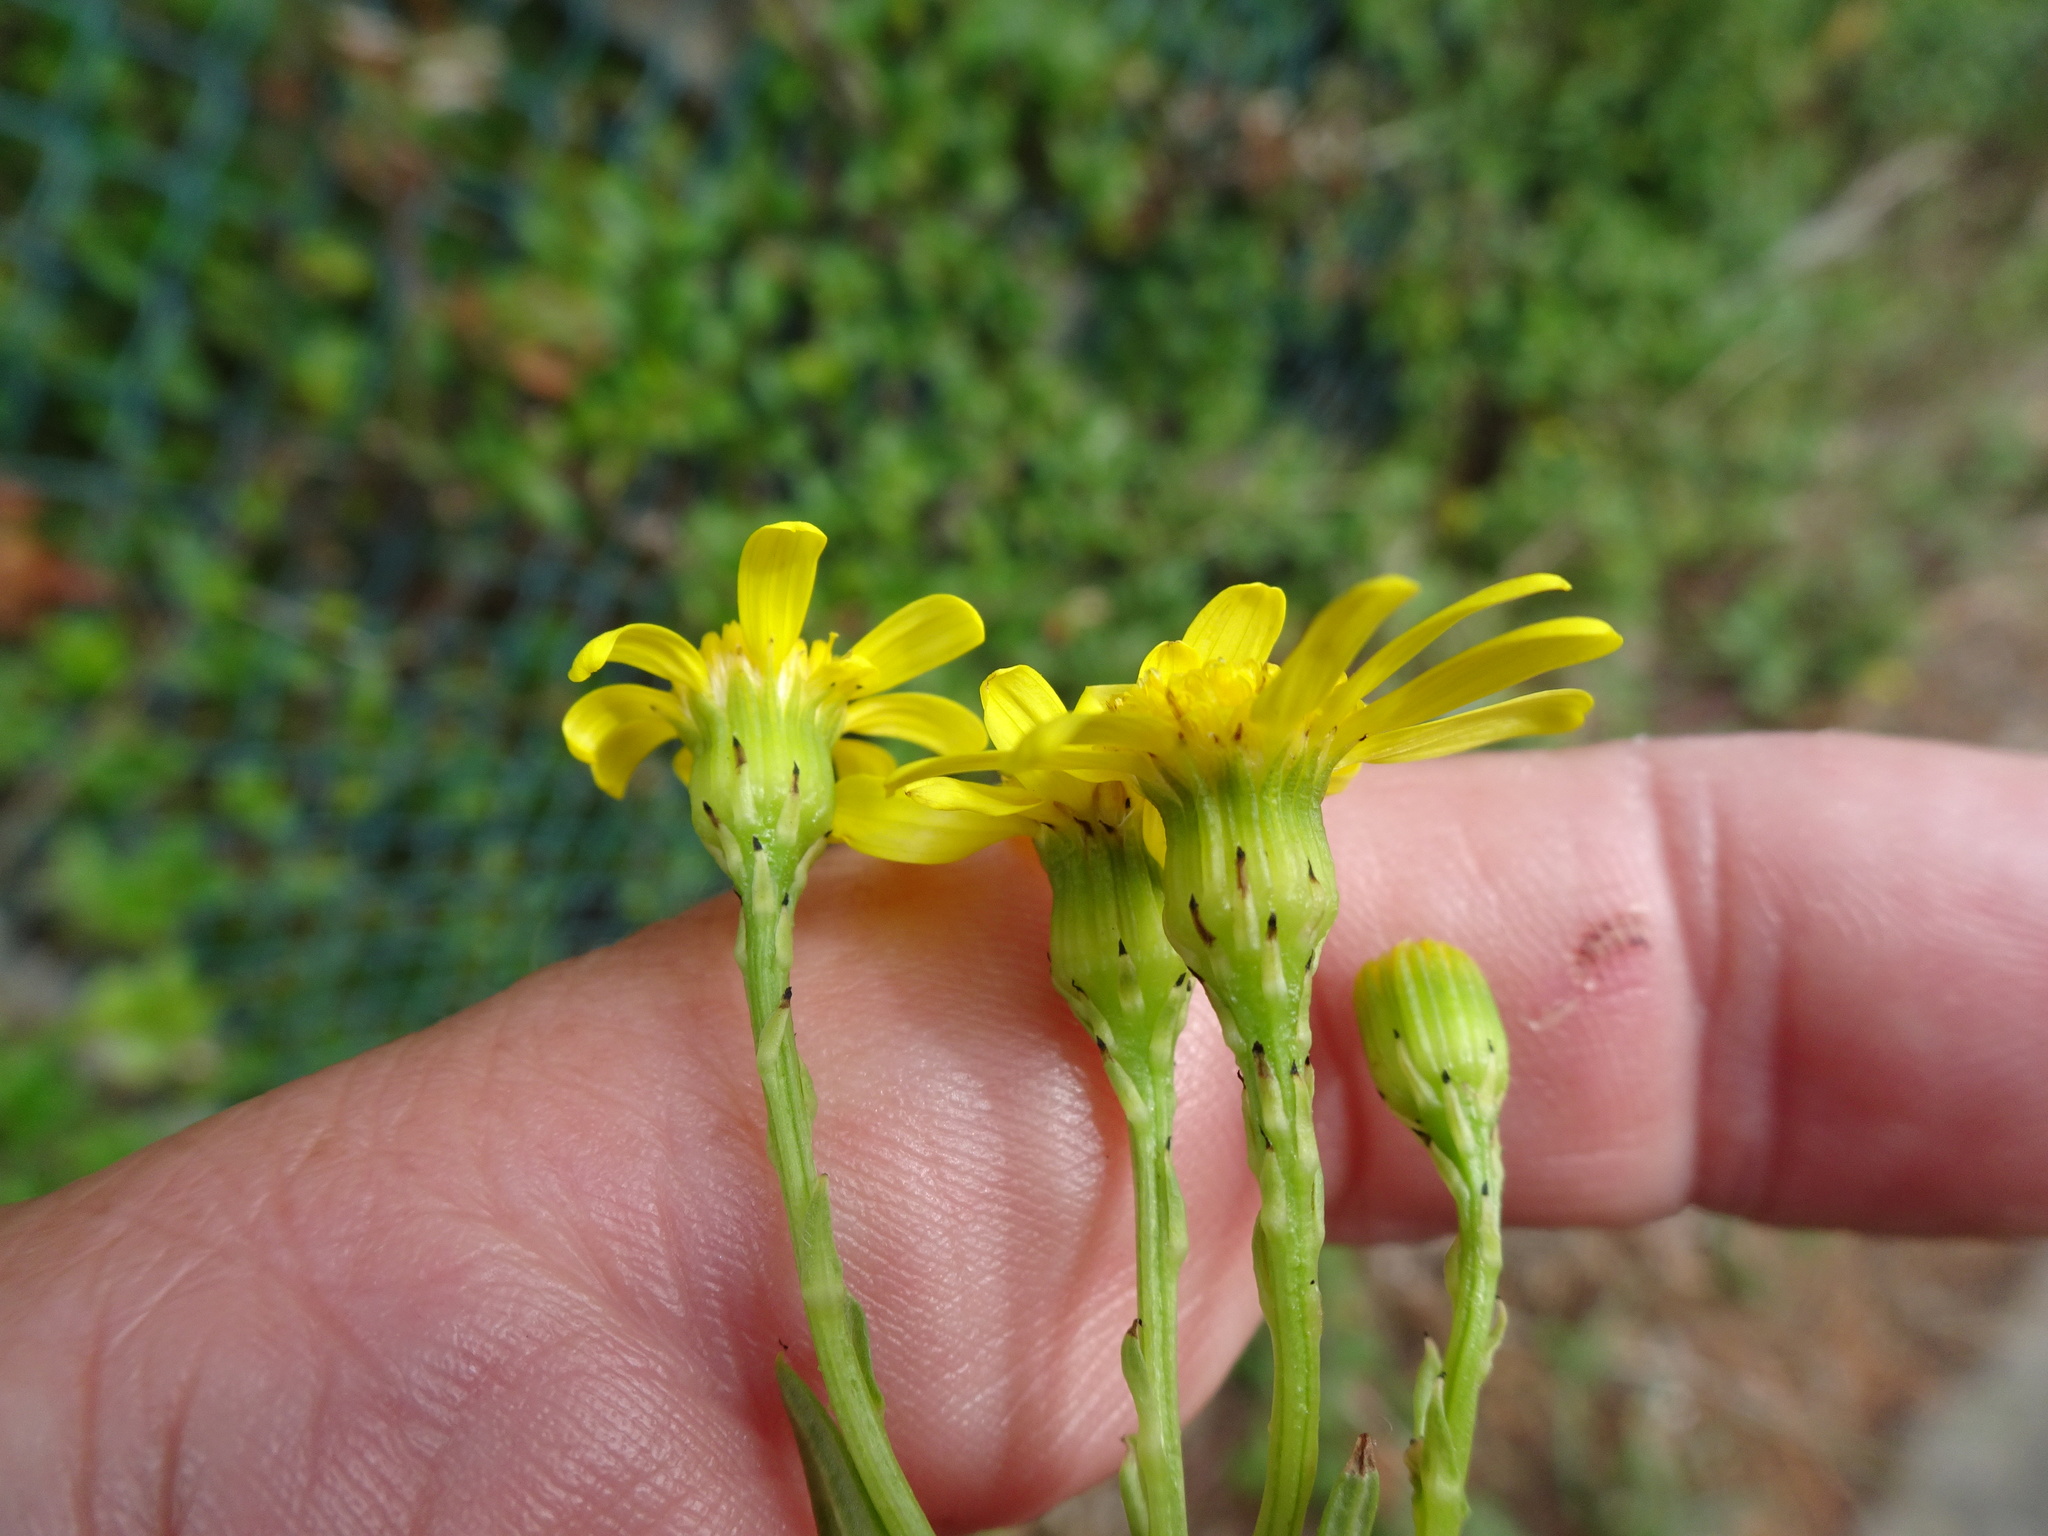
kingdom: Plantae
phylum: Tracheophyta
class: Magnoliopsida
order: Asterales
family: Asteraceae
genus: Senecio
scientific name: Senecio squalidus
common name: Oxford ragwort
